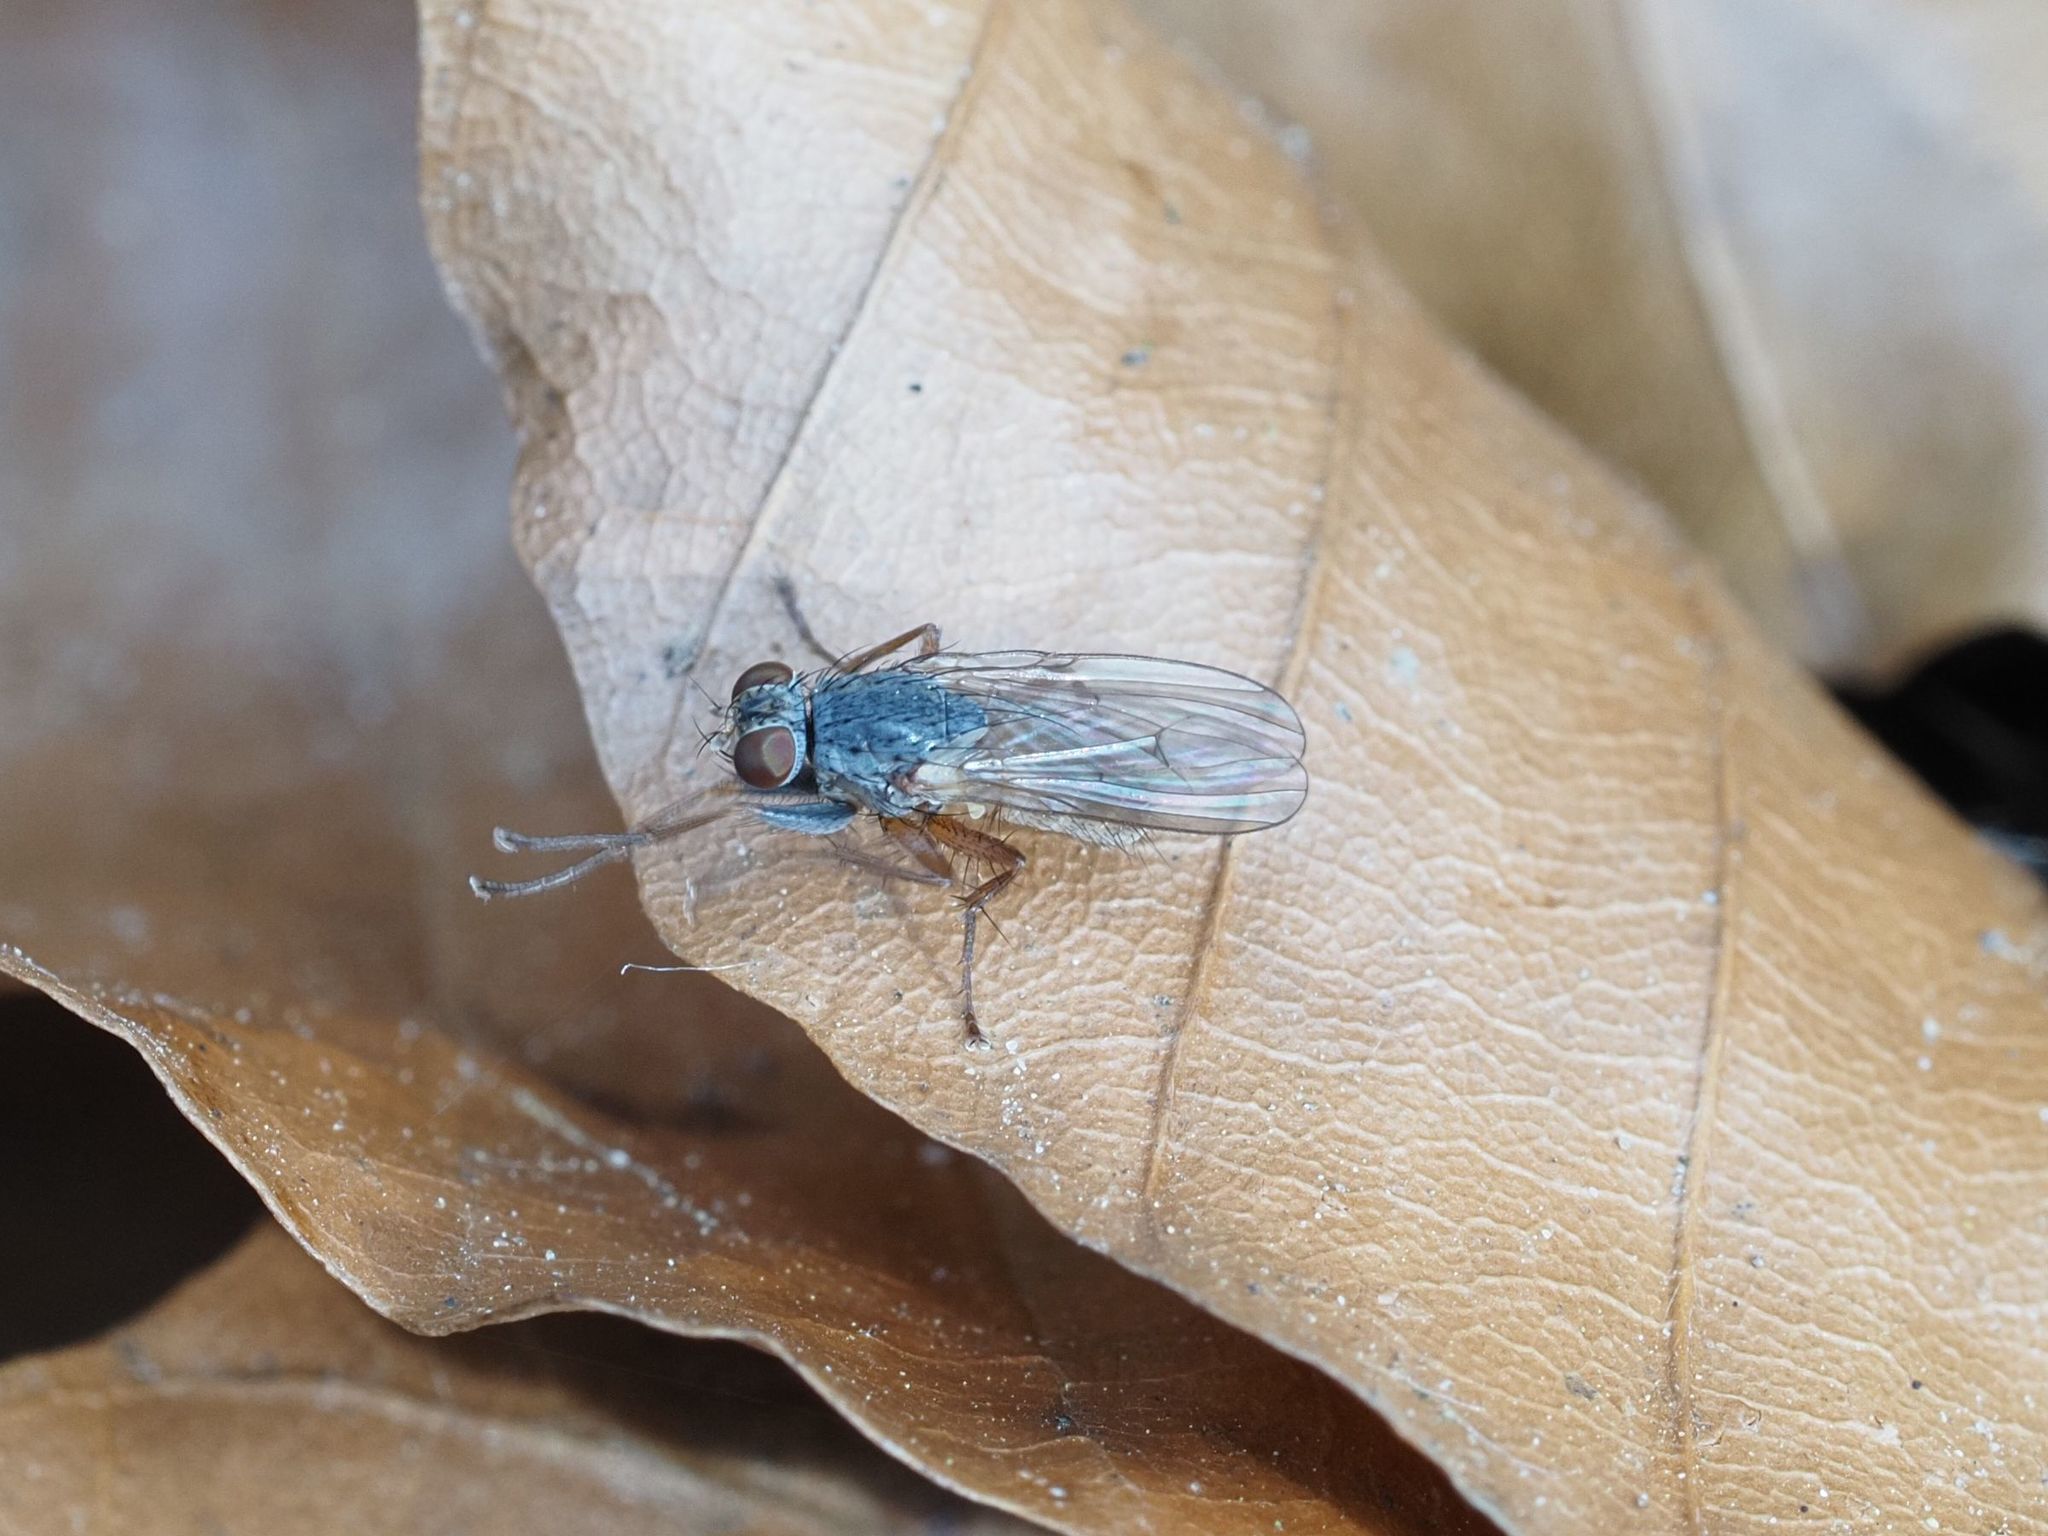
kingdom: Animalia
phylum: Arthropoda
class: Insecta
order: Diptera
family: Muscidae
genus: Lispocephala
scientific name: Lispocephala brachialis
